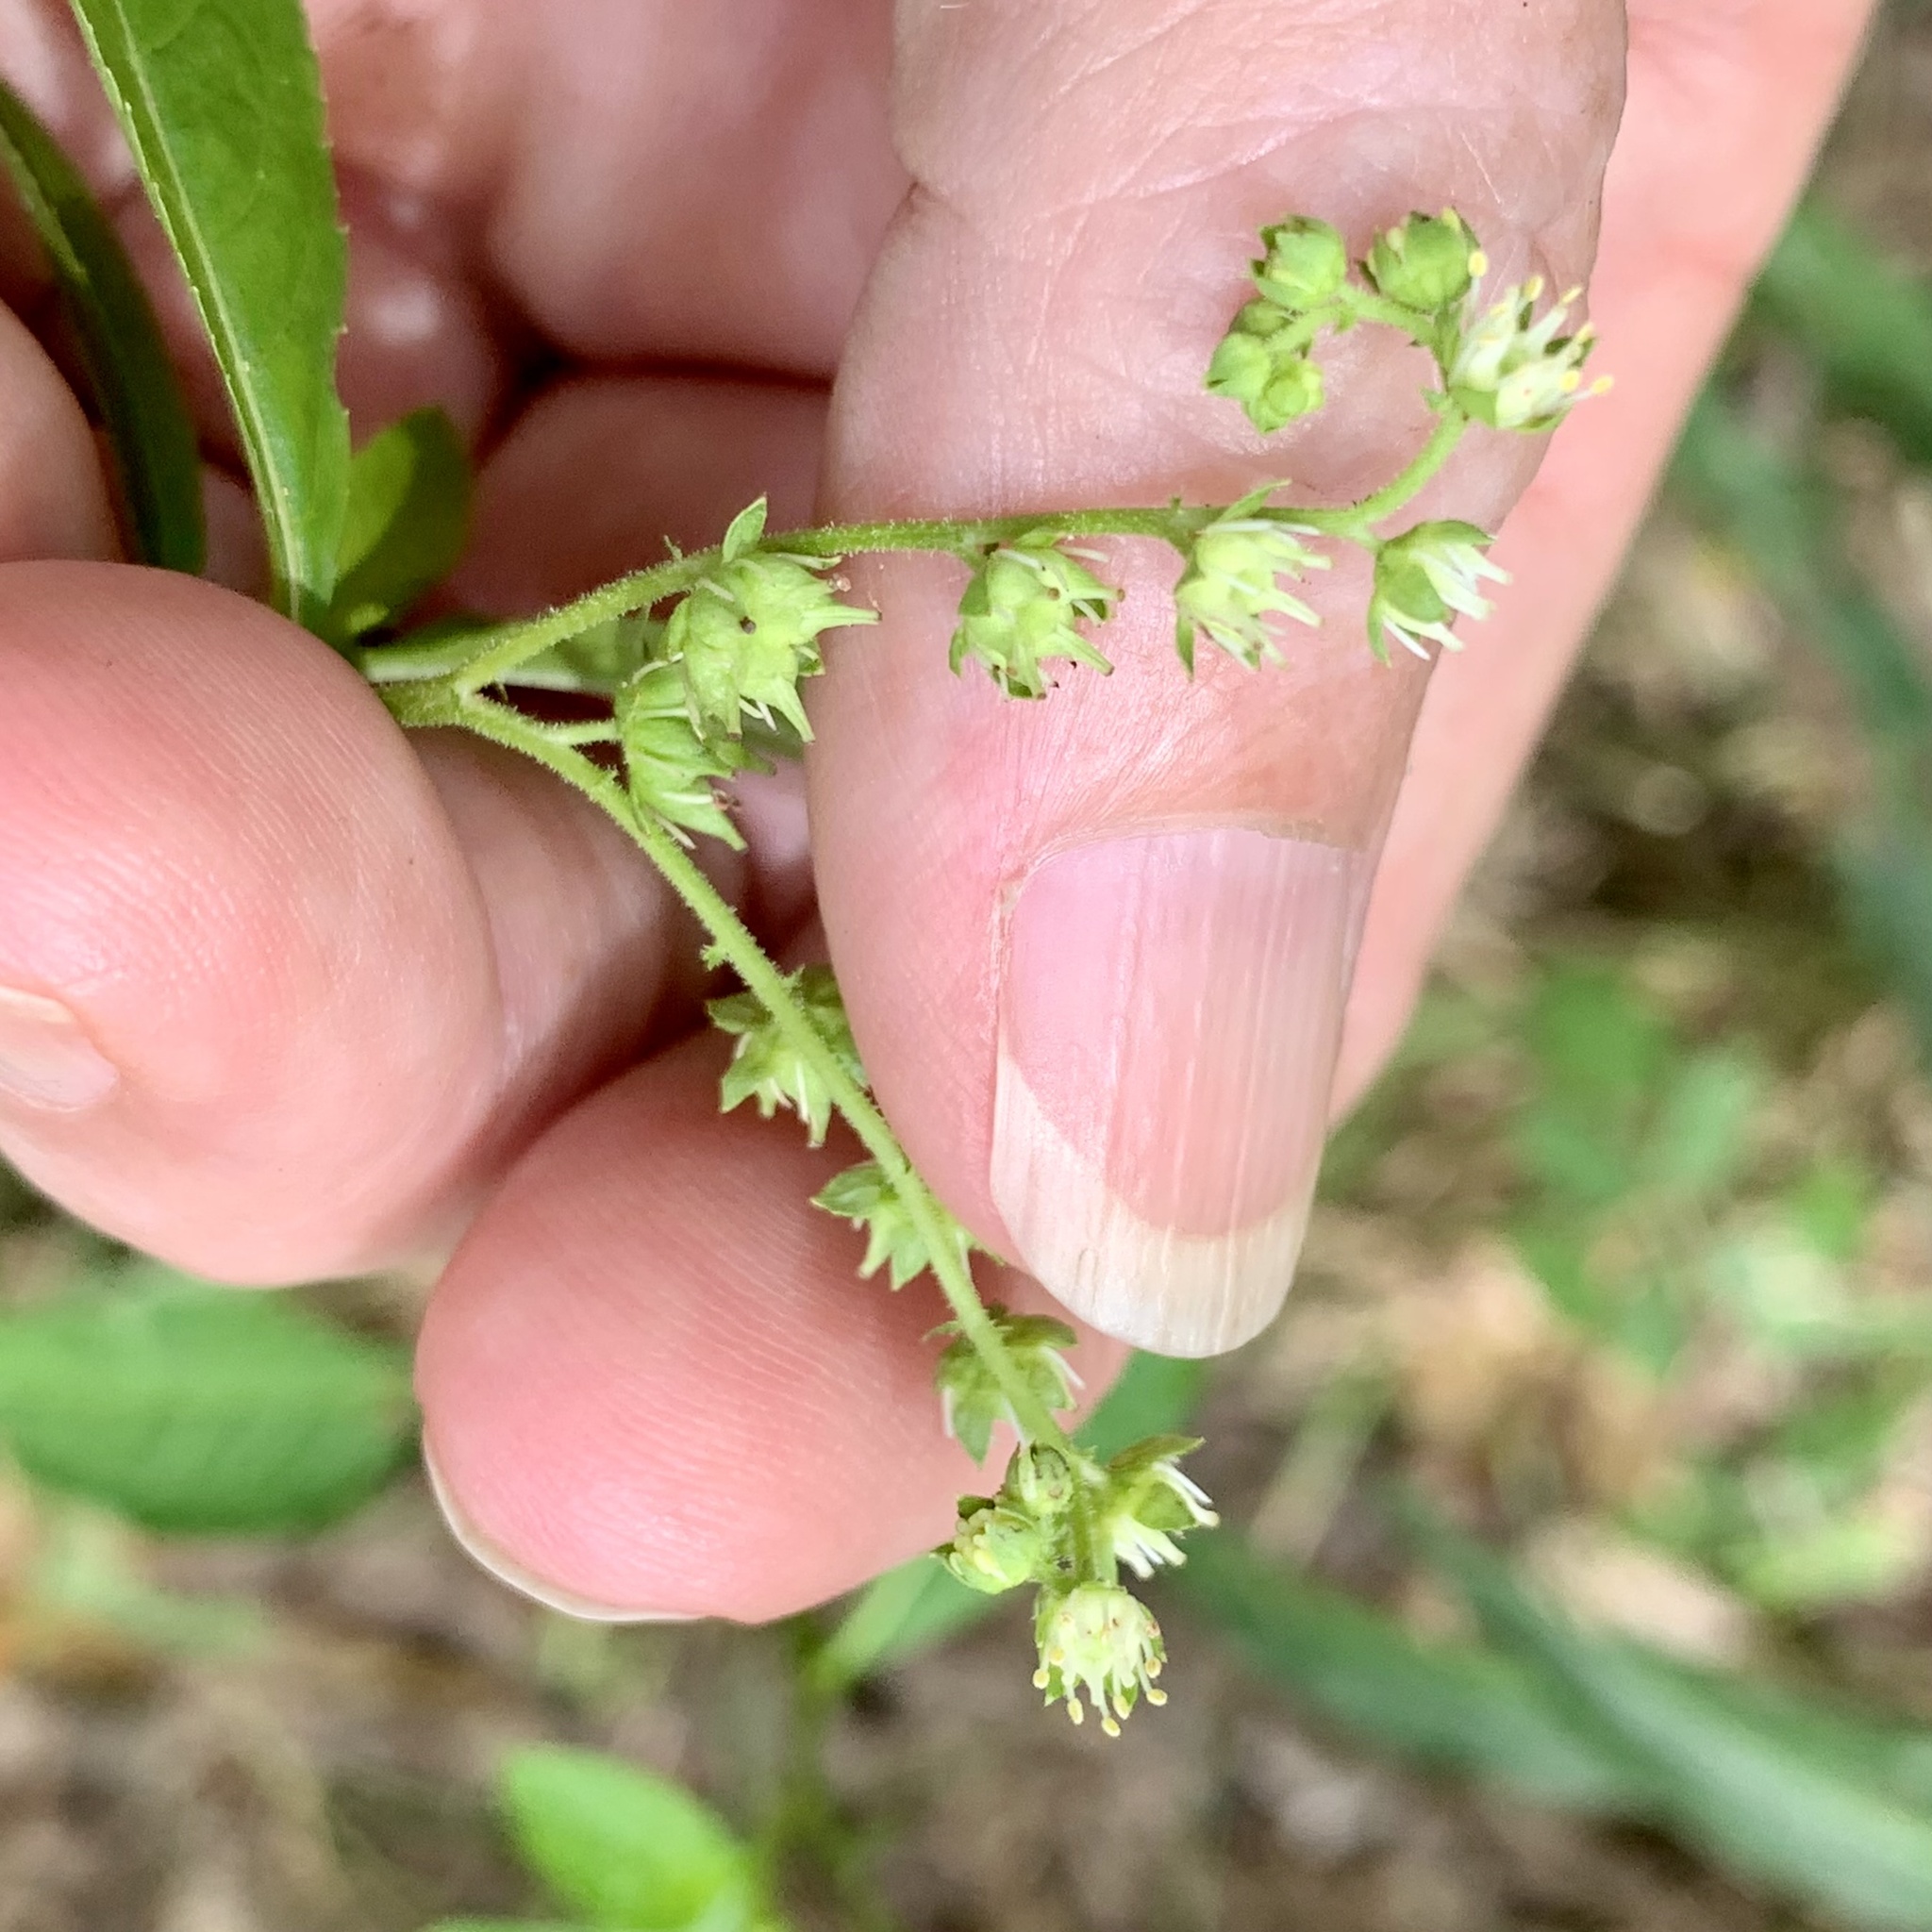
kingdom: Plantae
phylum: Tracheophyta
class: Magnoliopsida
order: Saxifragales
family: Penthoraceae
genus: Penthorum
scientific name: Penthorum sedoides
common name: Ditch stonecrop
